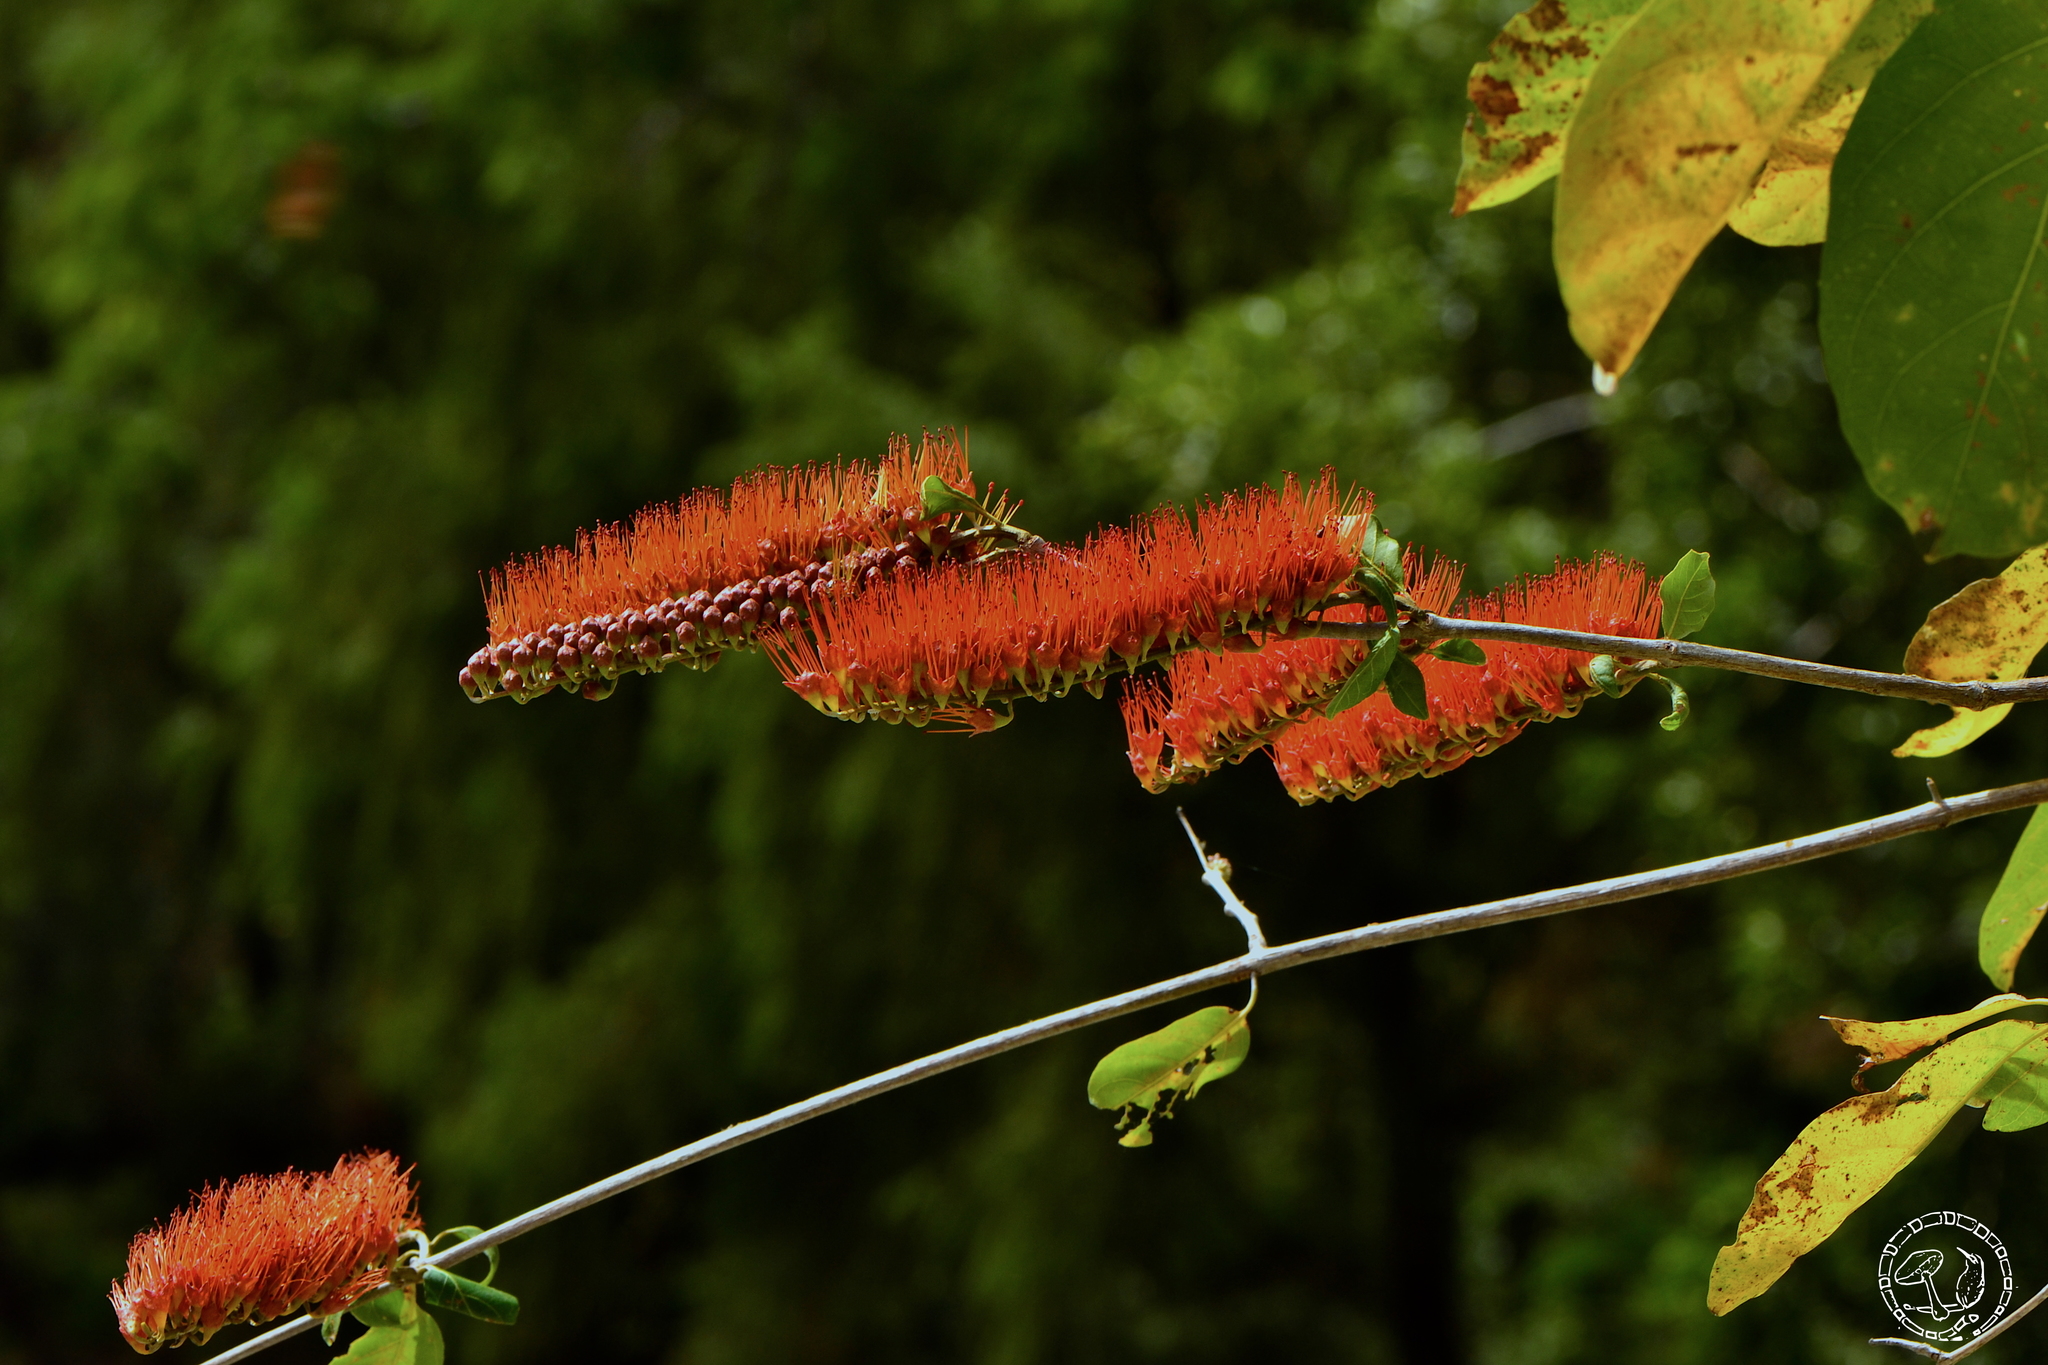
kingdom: Plantae
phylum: Tracheophyta
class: Magnoliopsida
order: Myrtales
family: Combretaceae
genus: Combretum
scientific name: Combretum fruticosum
